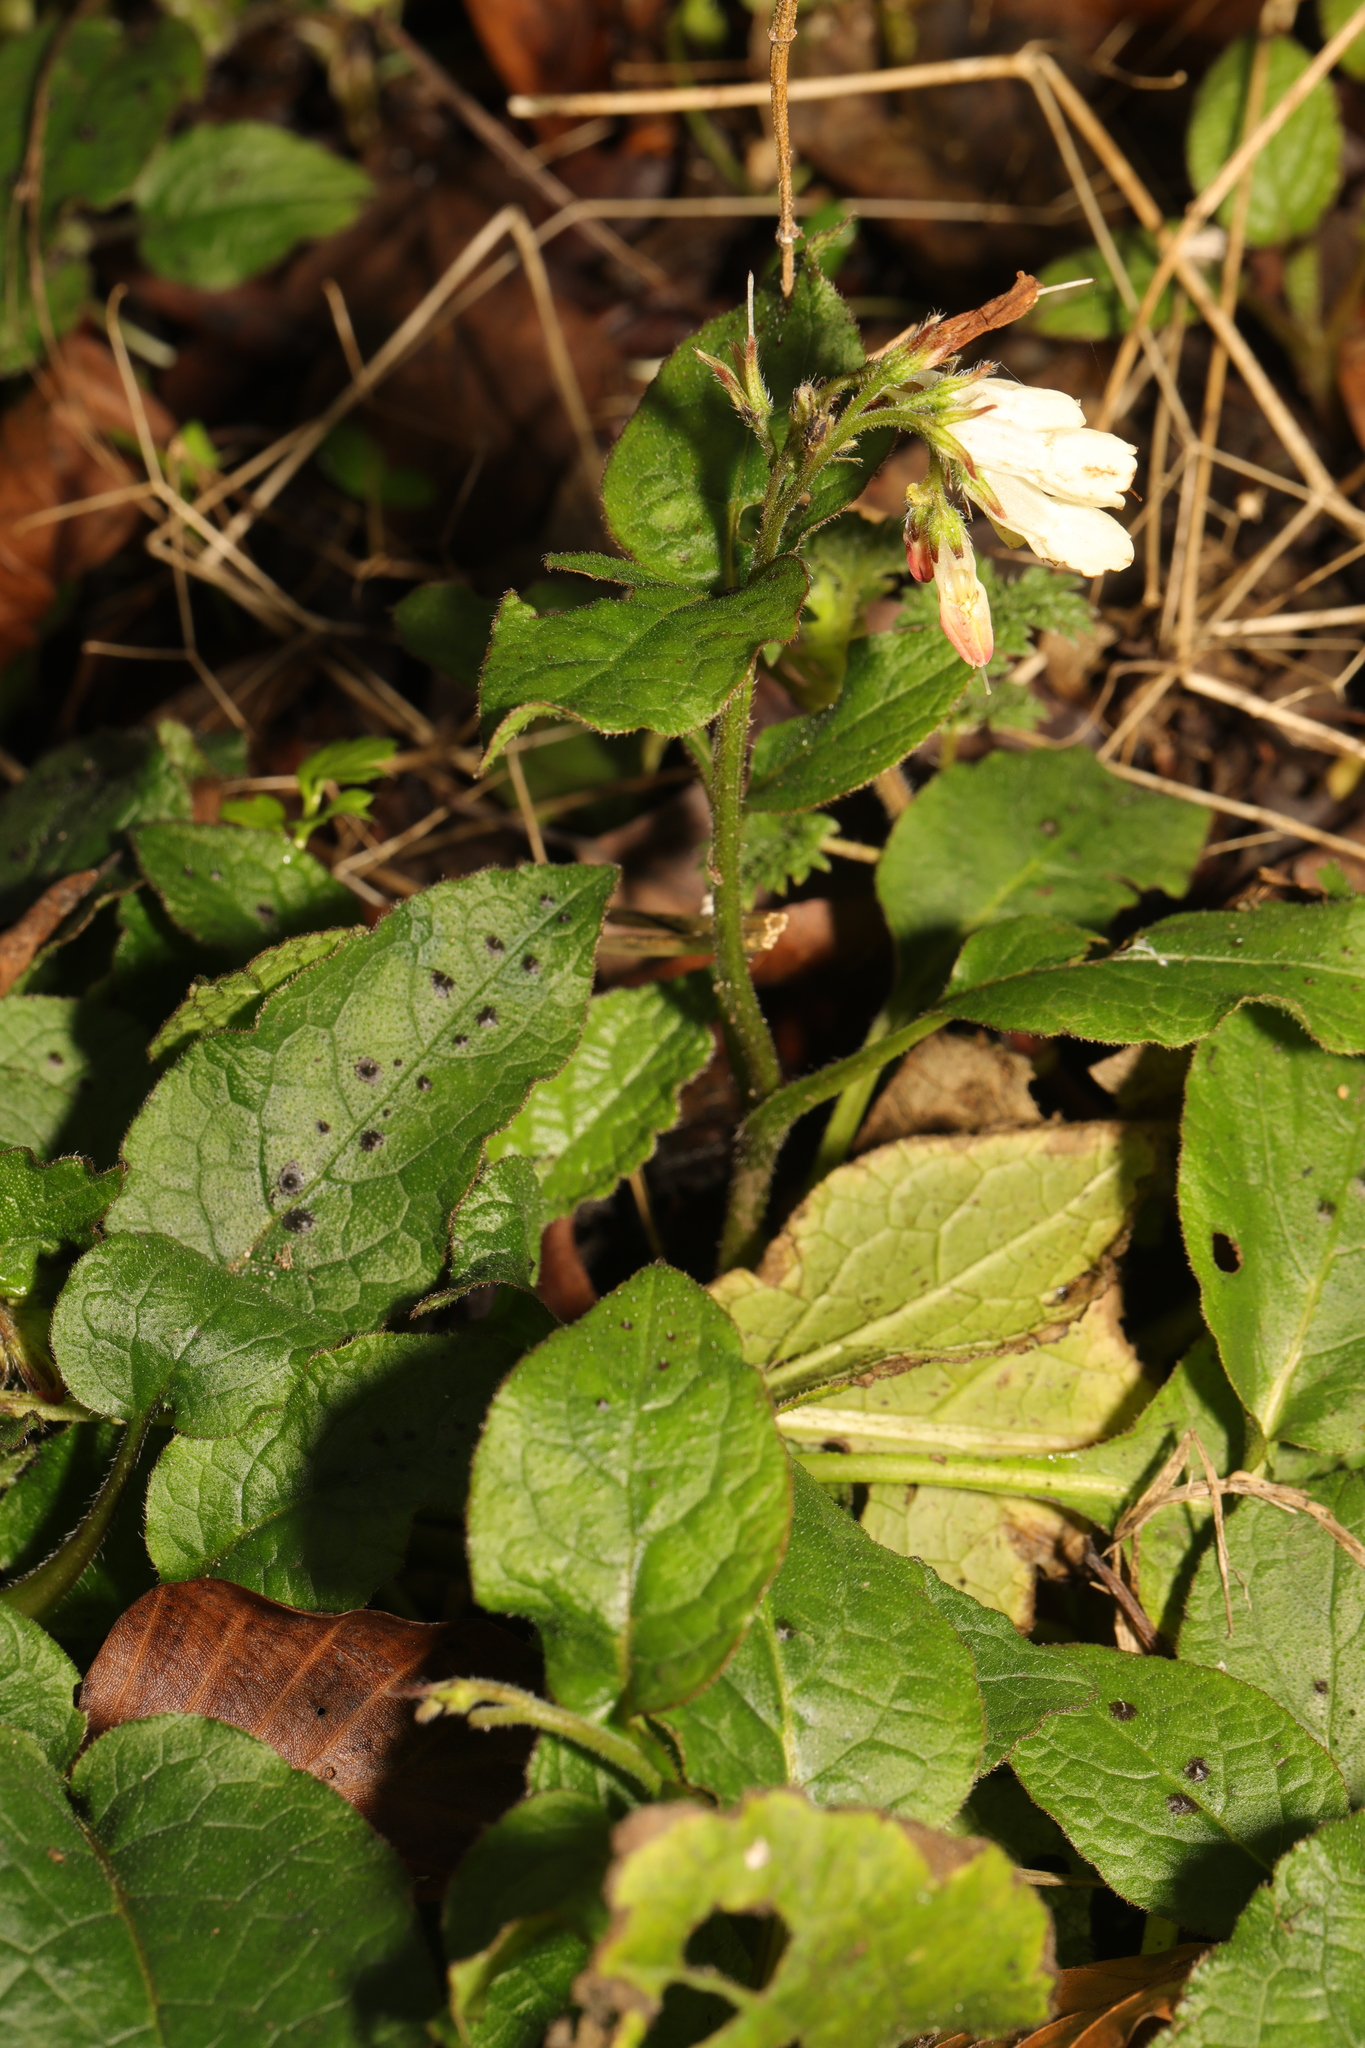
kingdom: Plantae
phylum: Tracheophyta
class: Magnoliopsida
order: Boraginales
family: Boraginaceae
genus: Symphytum
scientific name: Symphytum grandiflorum
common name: Creeping comfrey
